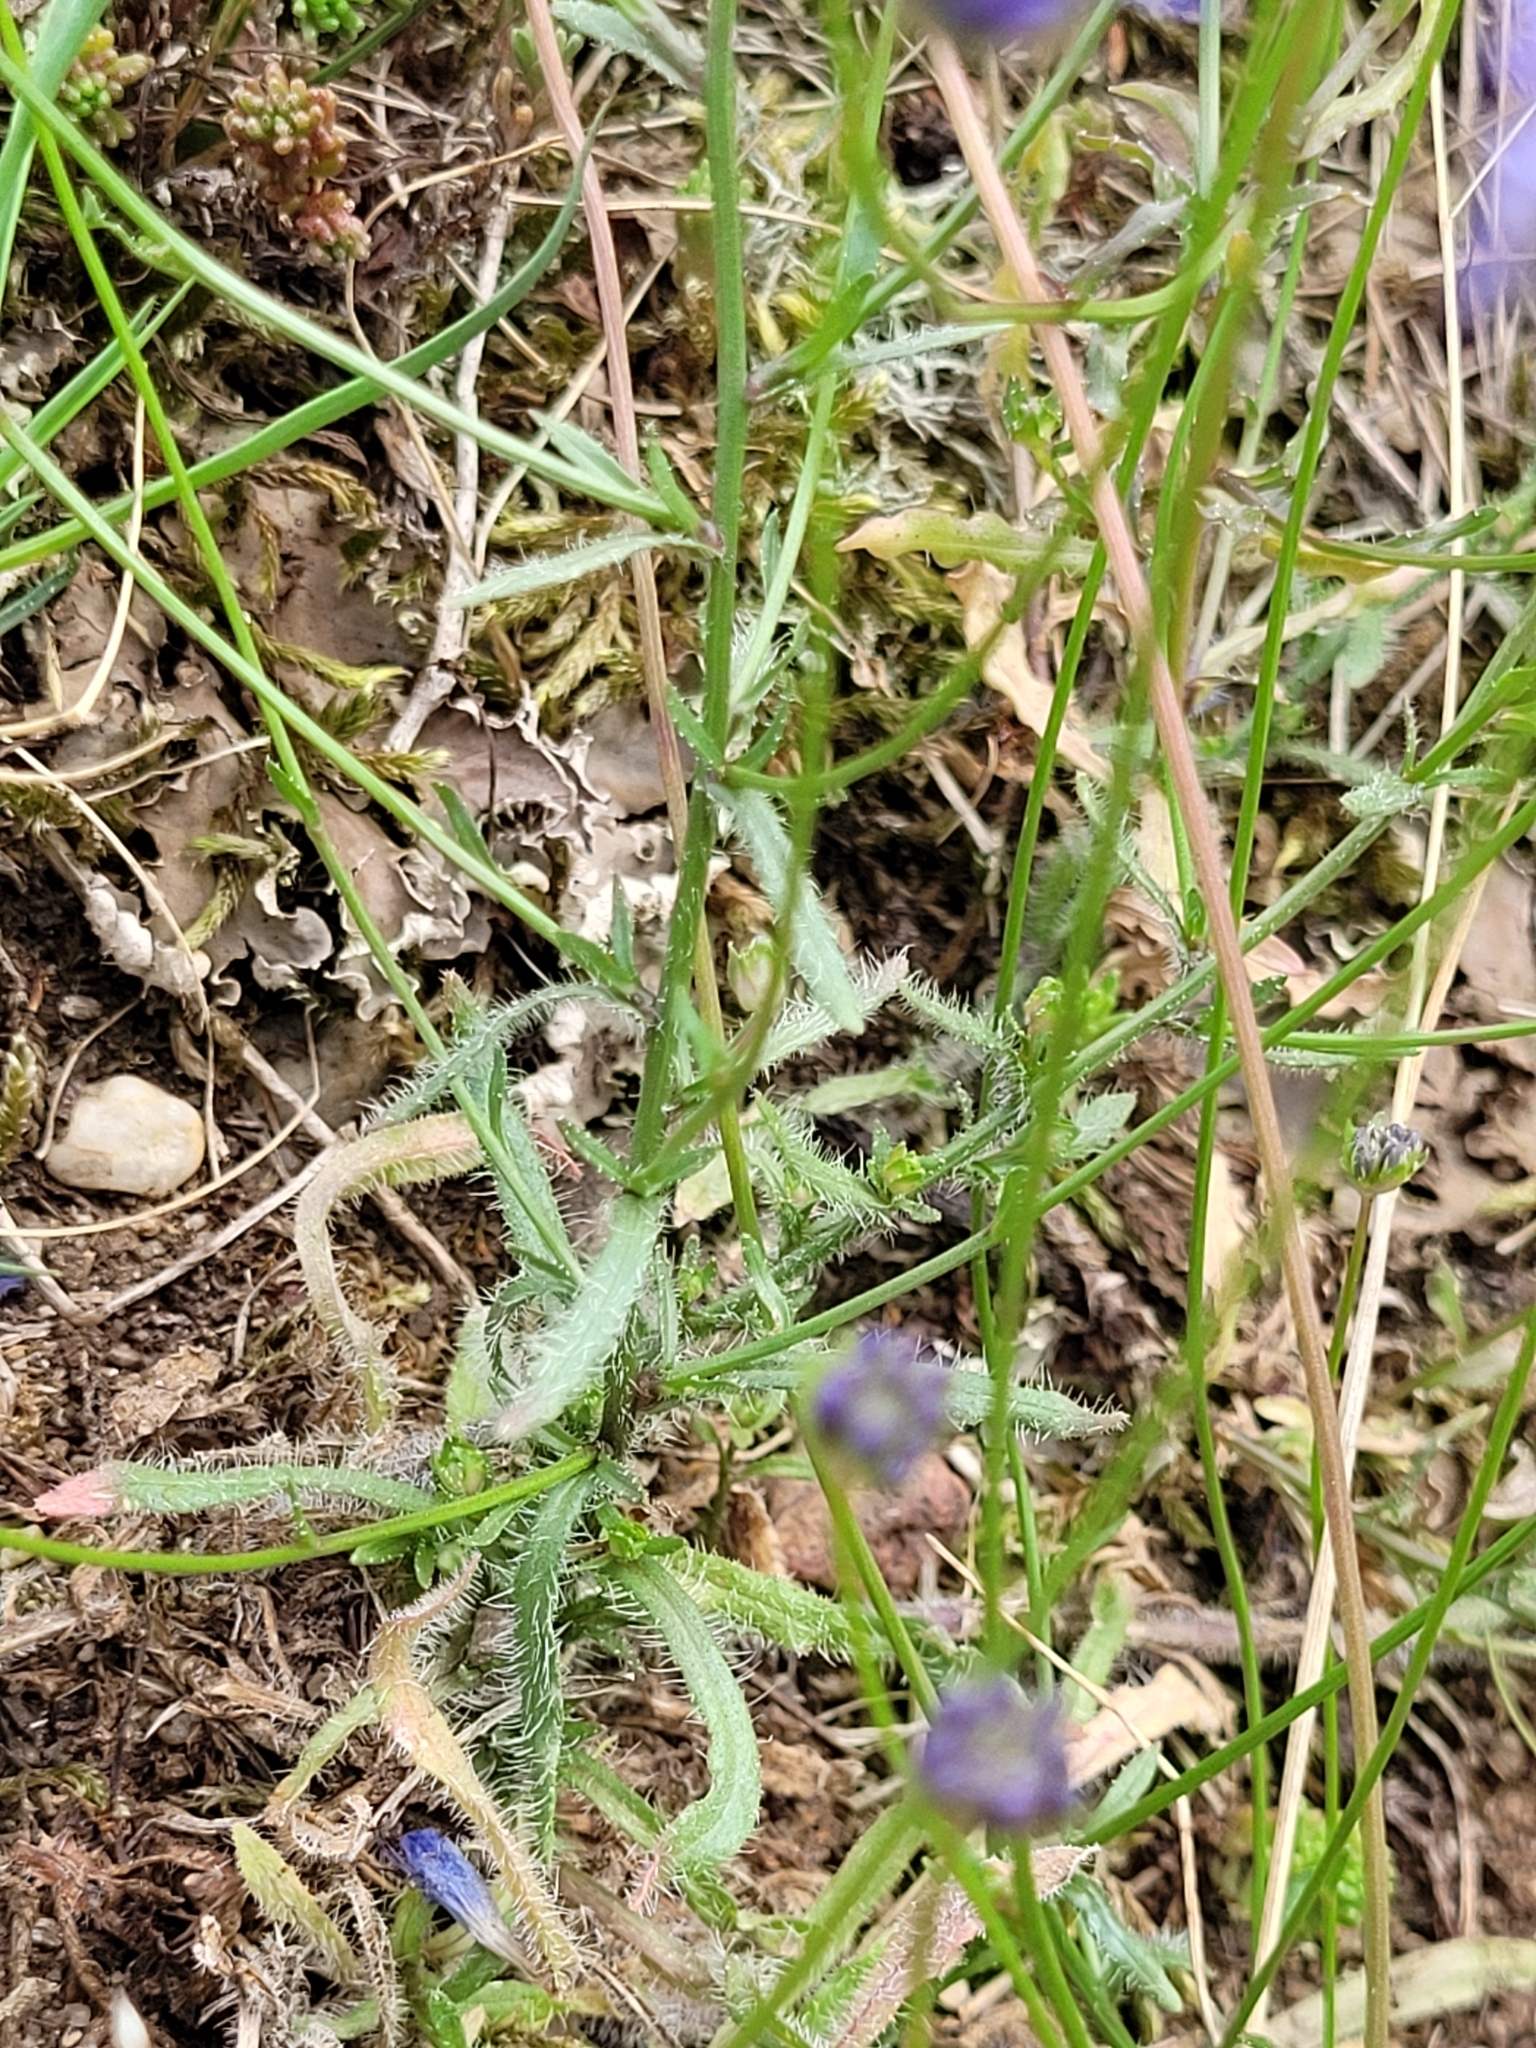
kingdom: Plantae
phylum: Tracheophyta
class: Magnoliopsida
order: Asterales
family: Campanulaceae
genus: Jasione
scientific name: Jasione montana
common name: Sheep's-bit
